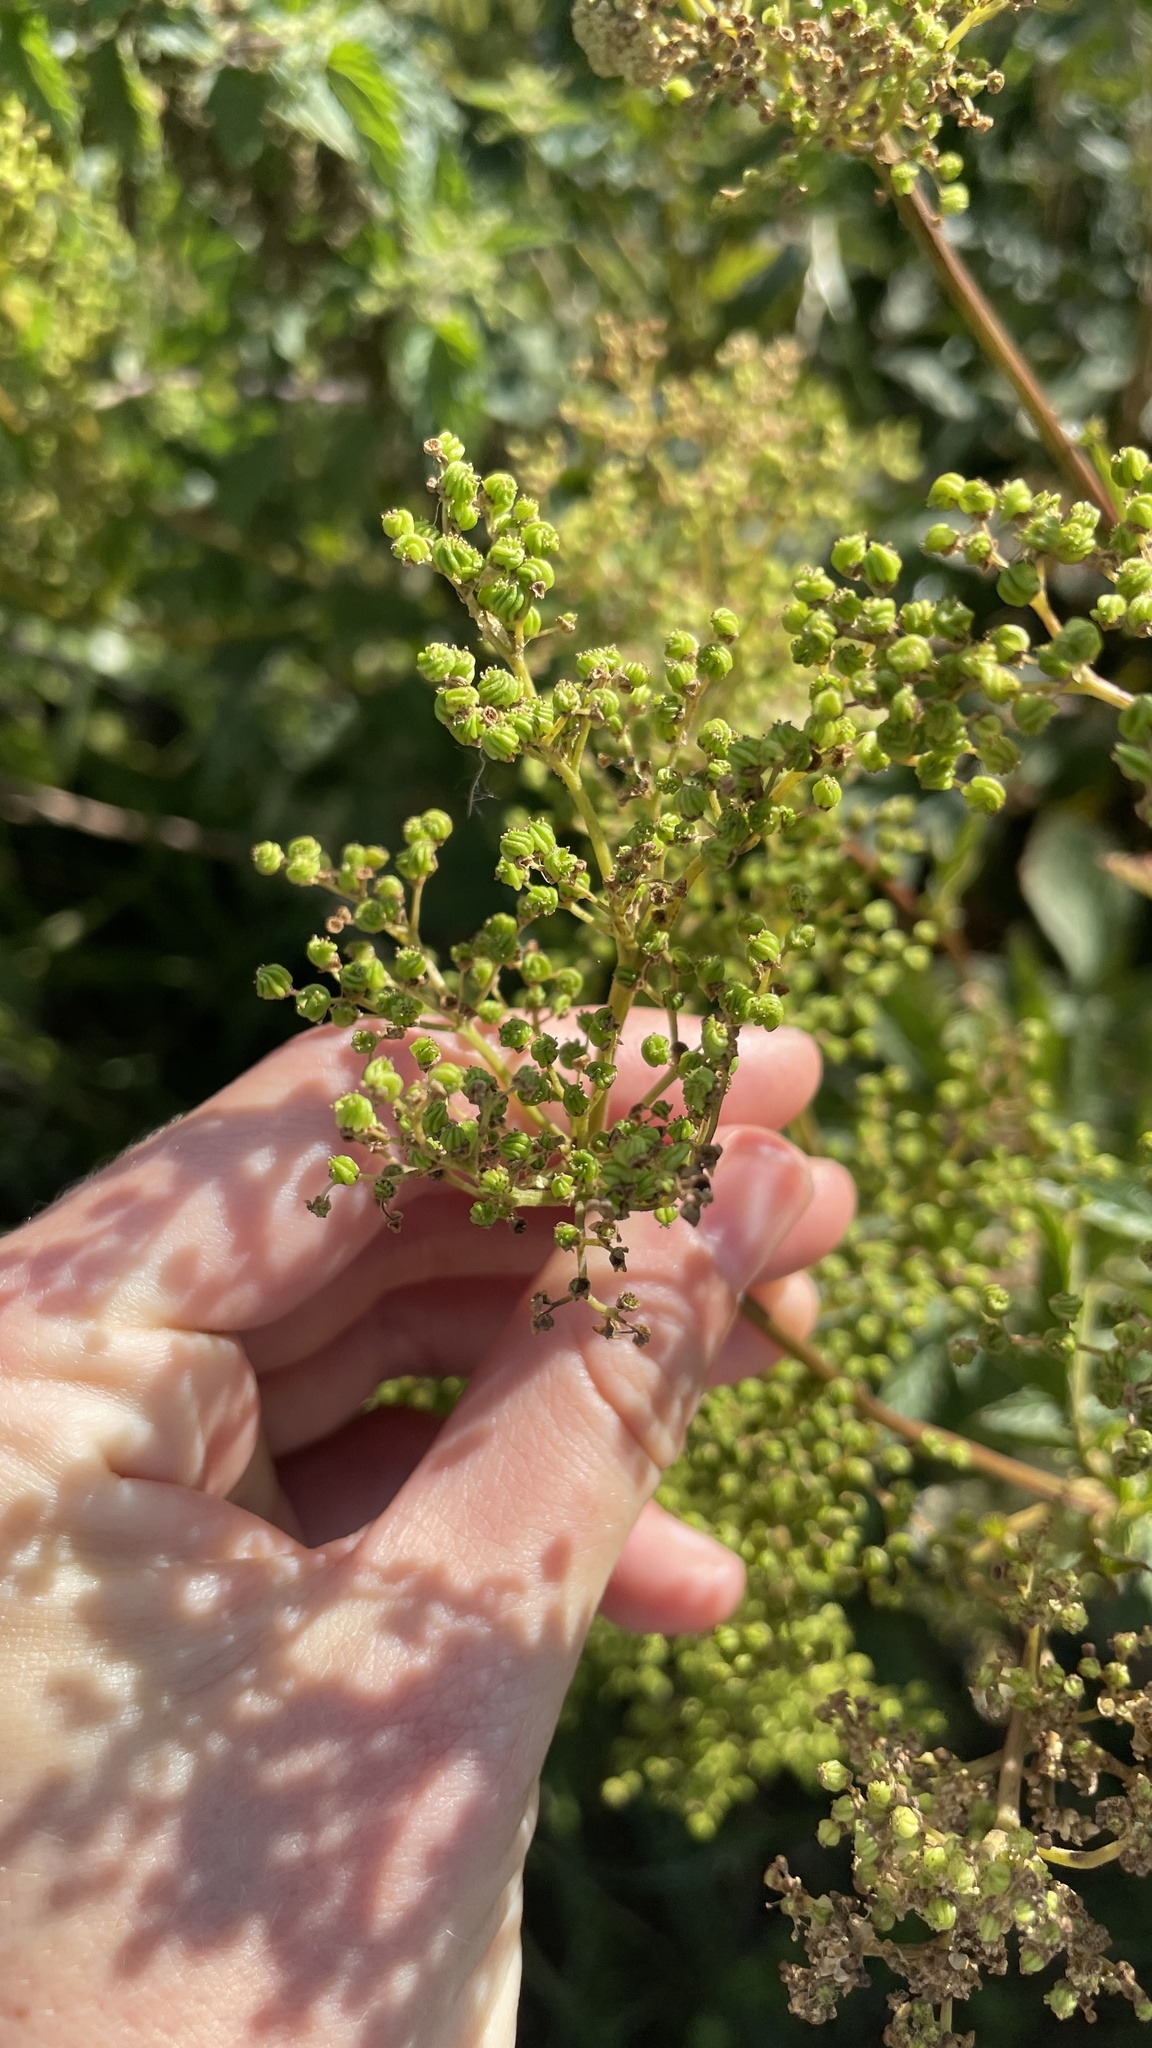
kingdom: Plantae
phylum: Tracheophyta
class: Magnoliopsida
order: Rosales
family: Rosaceae
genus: Filipendula
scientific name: Filipendula ulmaria
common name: Meadowsweet
